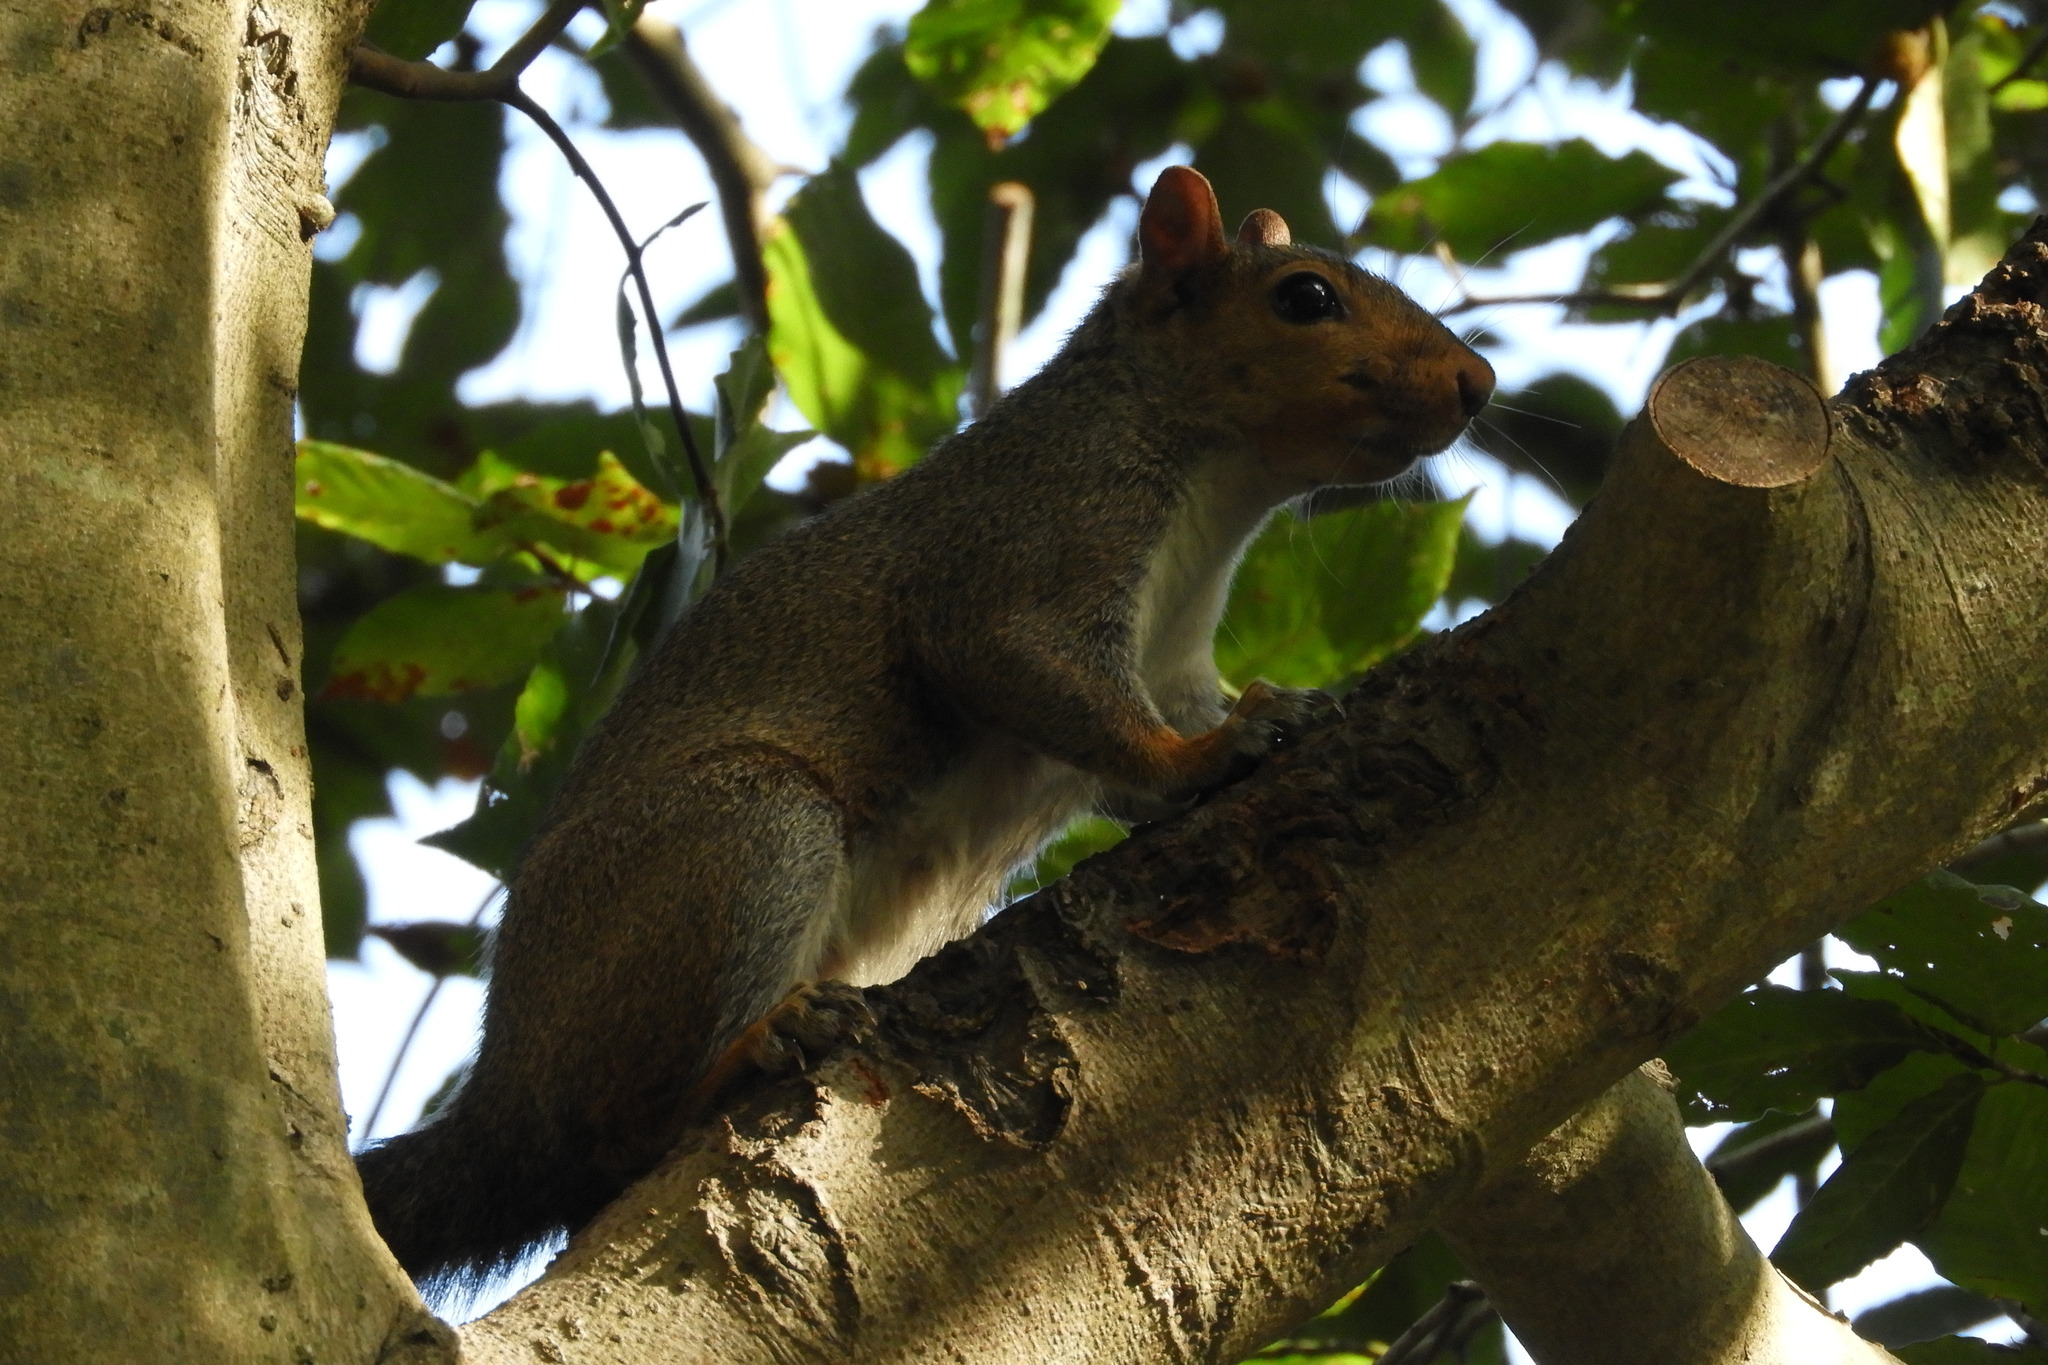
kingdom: Animalia
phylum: Chordata
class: Mammalia
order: Rodentia
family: Sciuridae
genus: Sciurus
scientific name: Sciurus carolinensis
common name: Eastern gray squirrel
